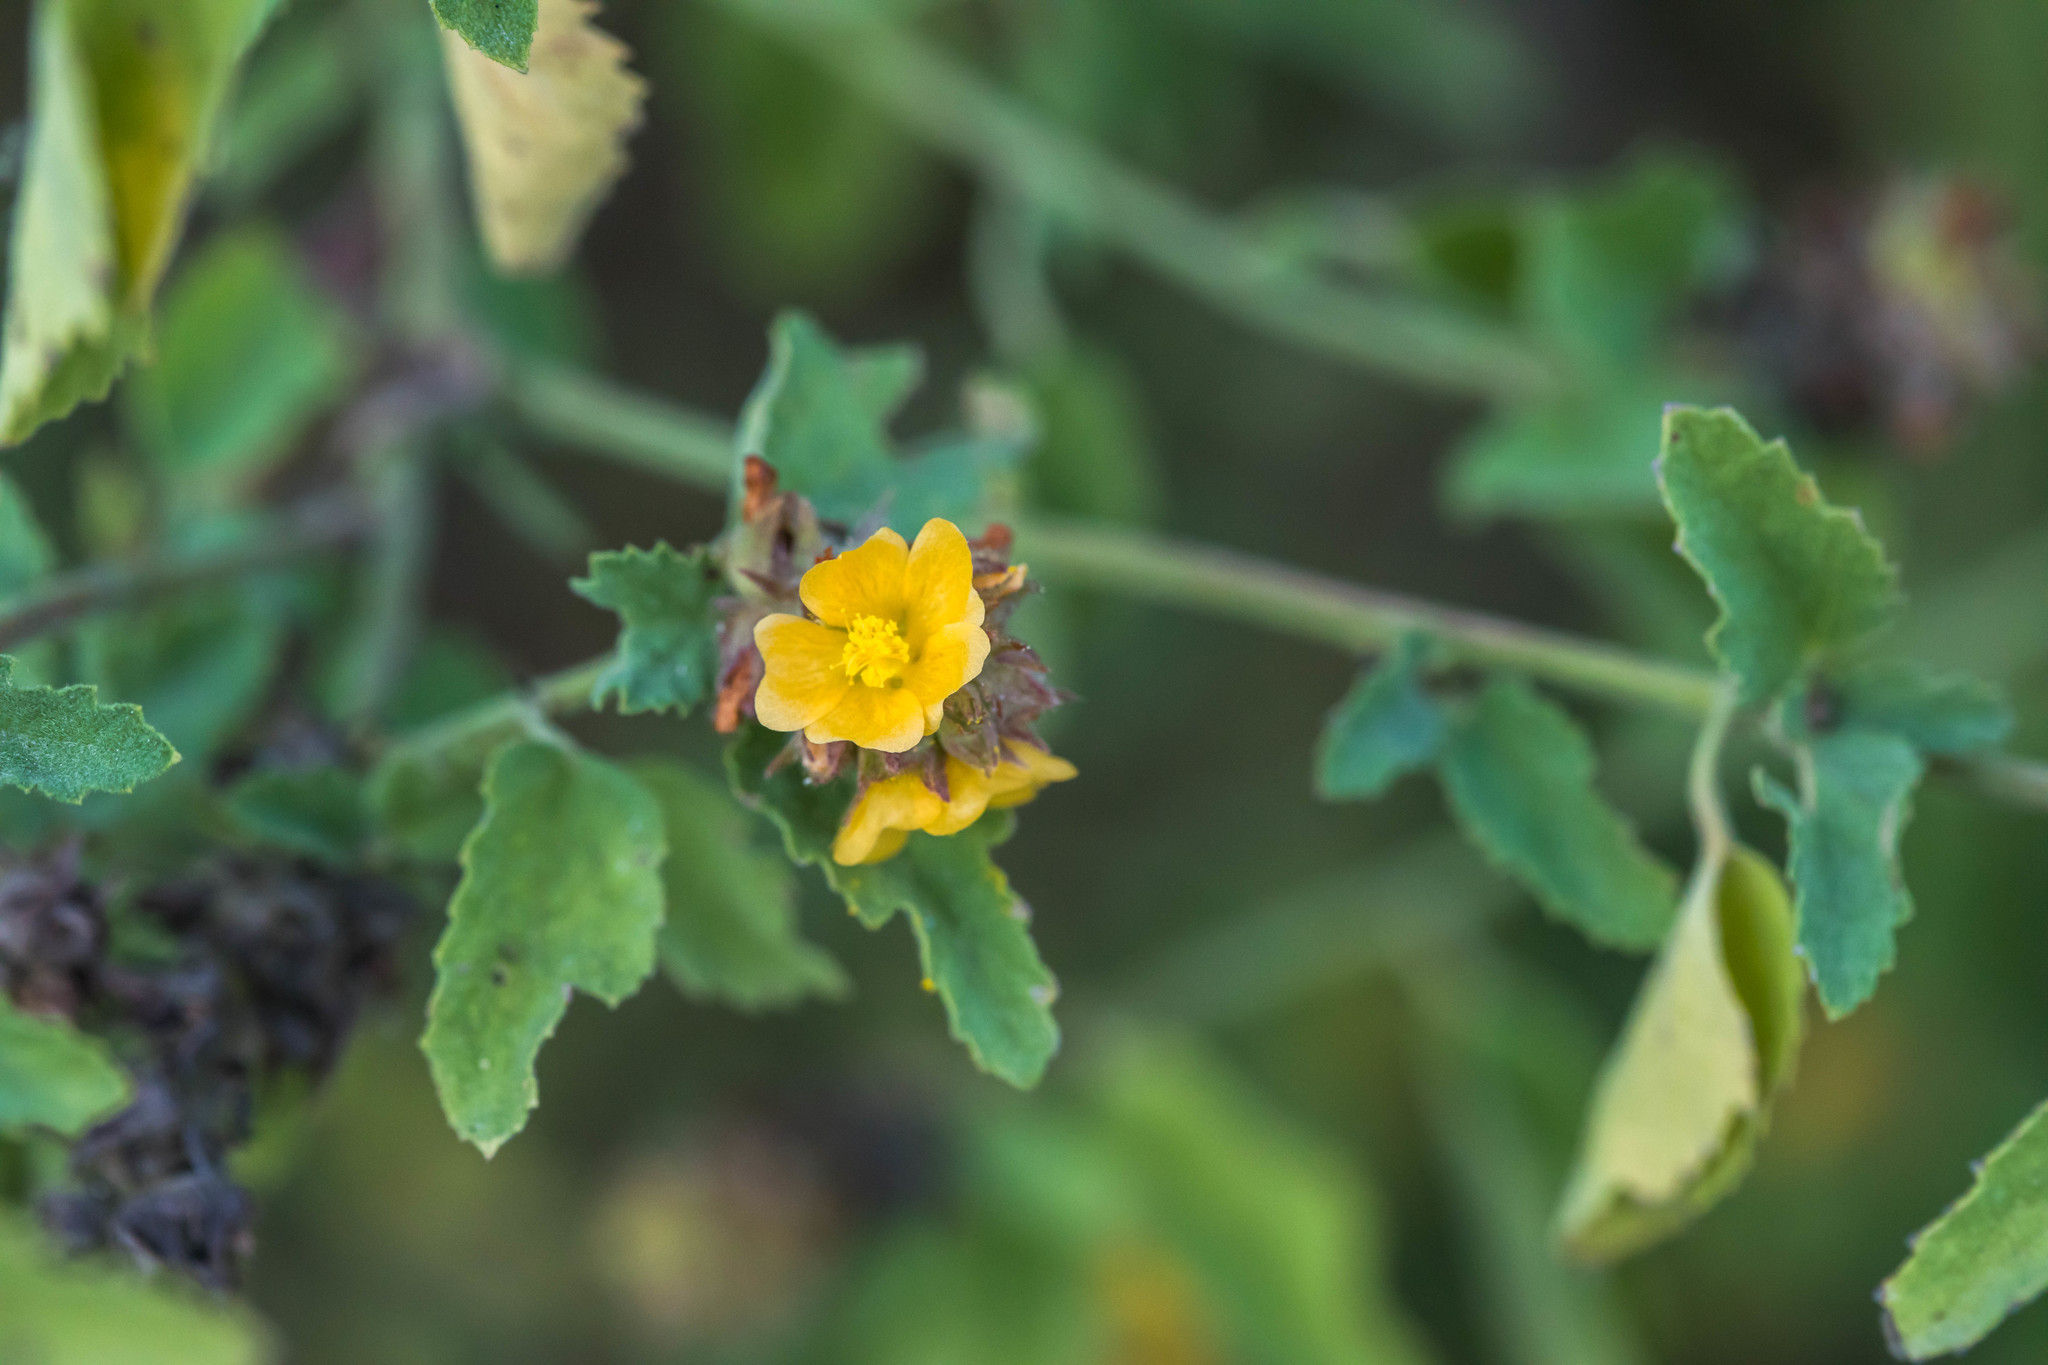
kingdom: Plantae
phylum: Tracheophyta
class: Magnoliopsida
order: Malvales
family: Malvaceae
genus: Malvastrum
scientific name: Malvastrum americanum
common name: Spiked malvastrum
